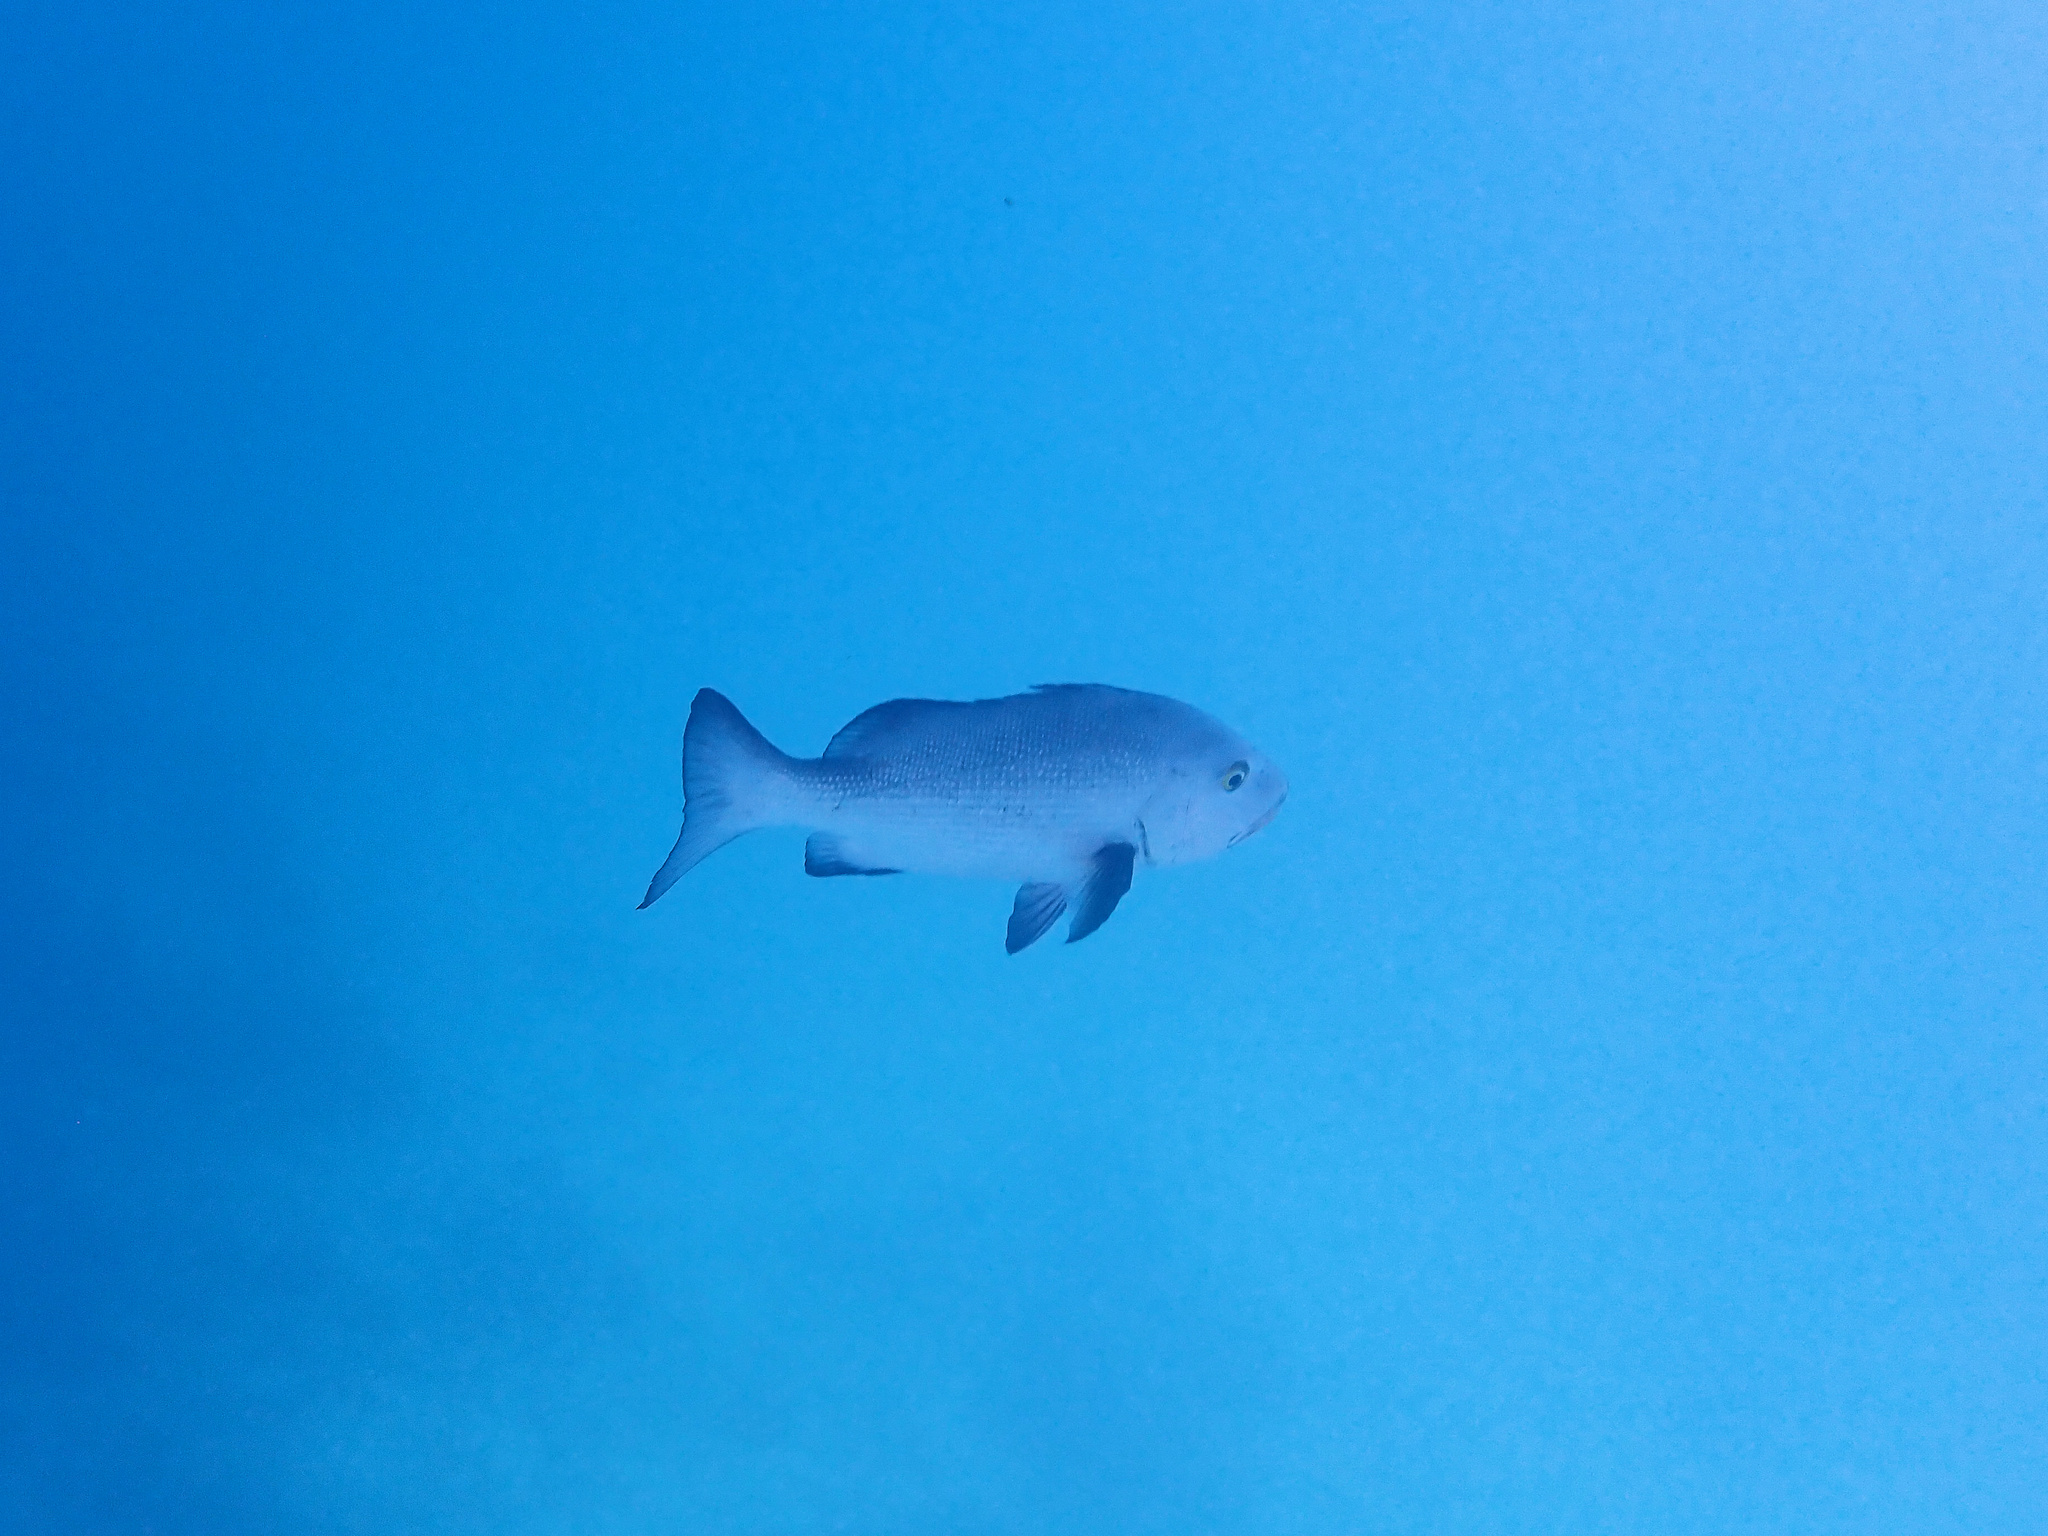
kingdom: Animalia
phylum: Chordata
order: Perciformes
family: Lutjanidae
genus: Lutjanus
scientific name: Lutjanus bohar
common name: Red bass
